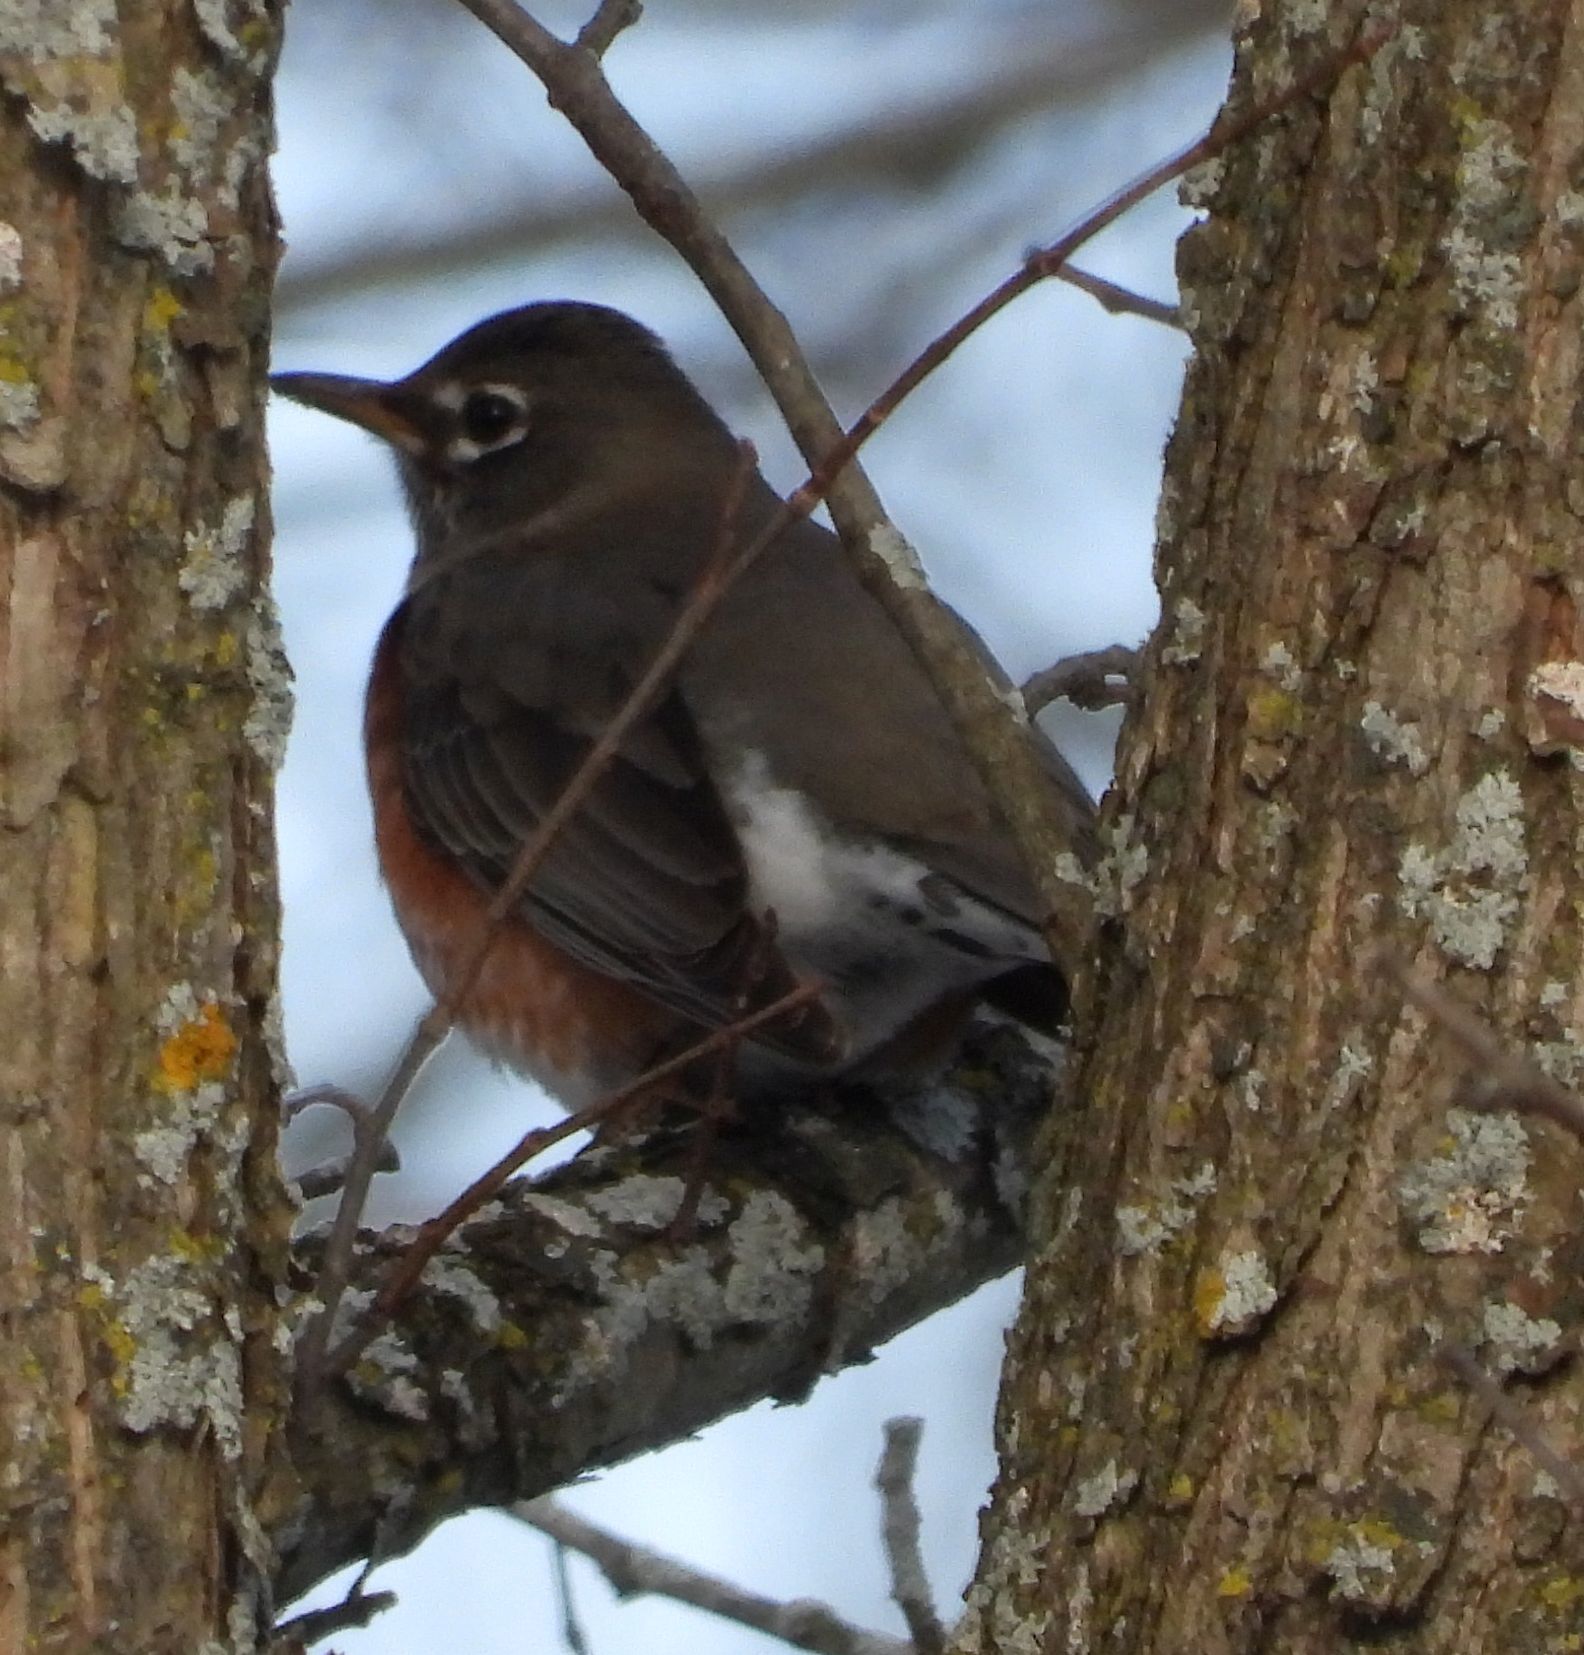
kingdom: Animalia
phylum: Chordata
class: Aves
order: Passeriformes
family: Turdidae
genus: Turdus
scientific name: Turdus migratorius
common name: American robin
